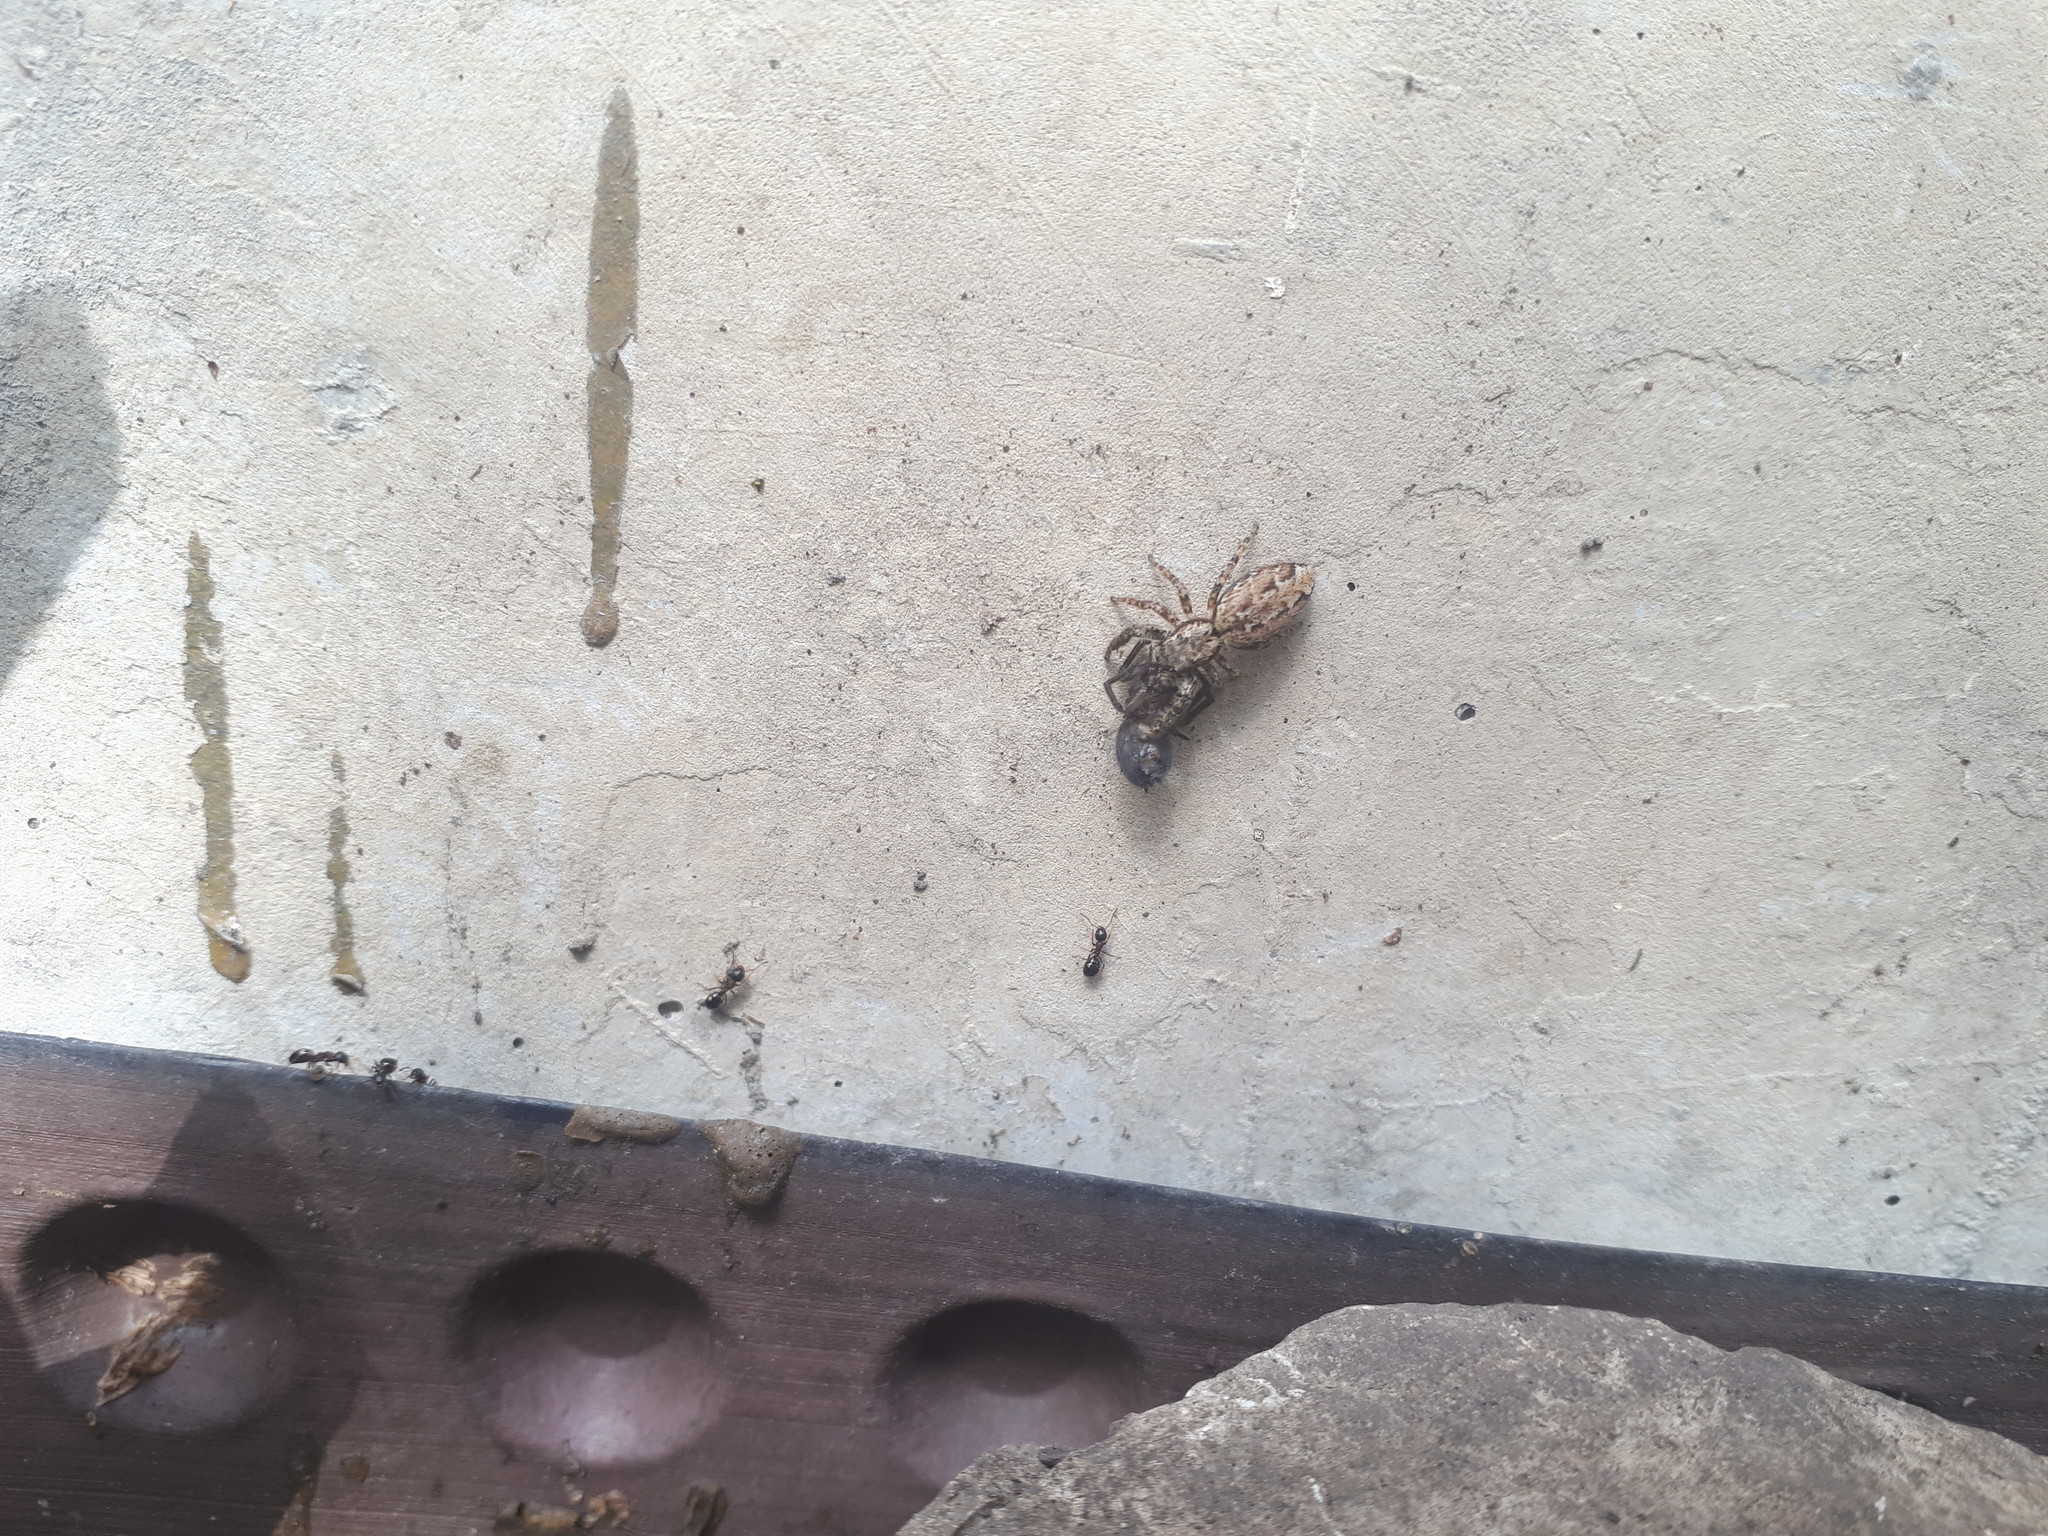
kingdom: Animalia
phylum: Arthropoda
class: Arachnida
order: Araneae
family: Salticidae
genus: Marpissa
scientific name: Marpissa muscosa
